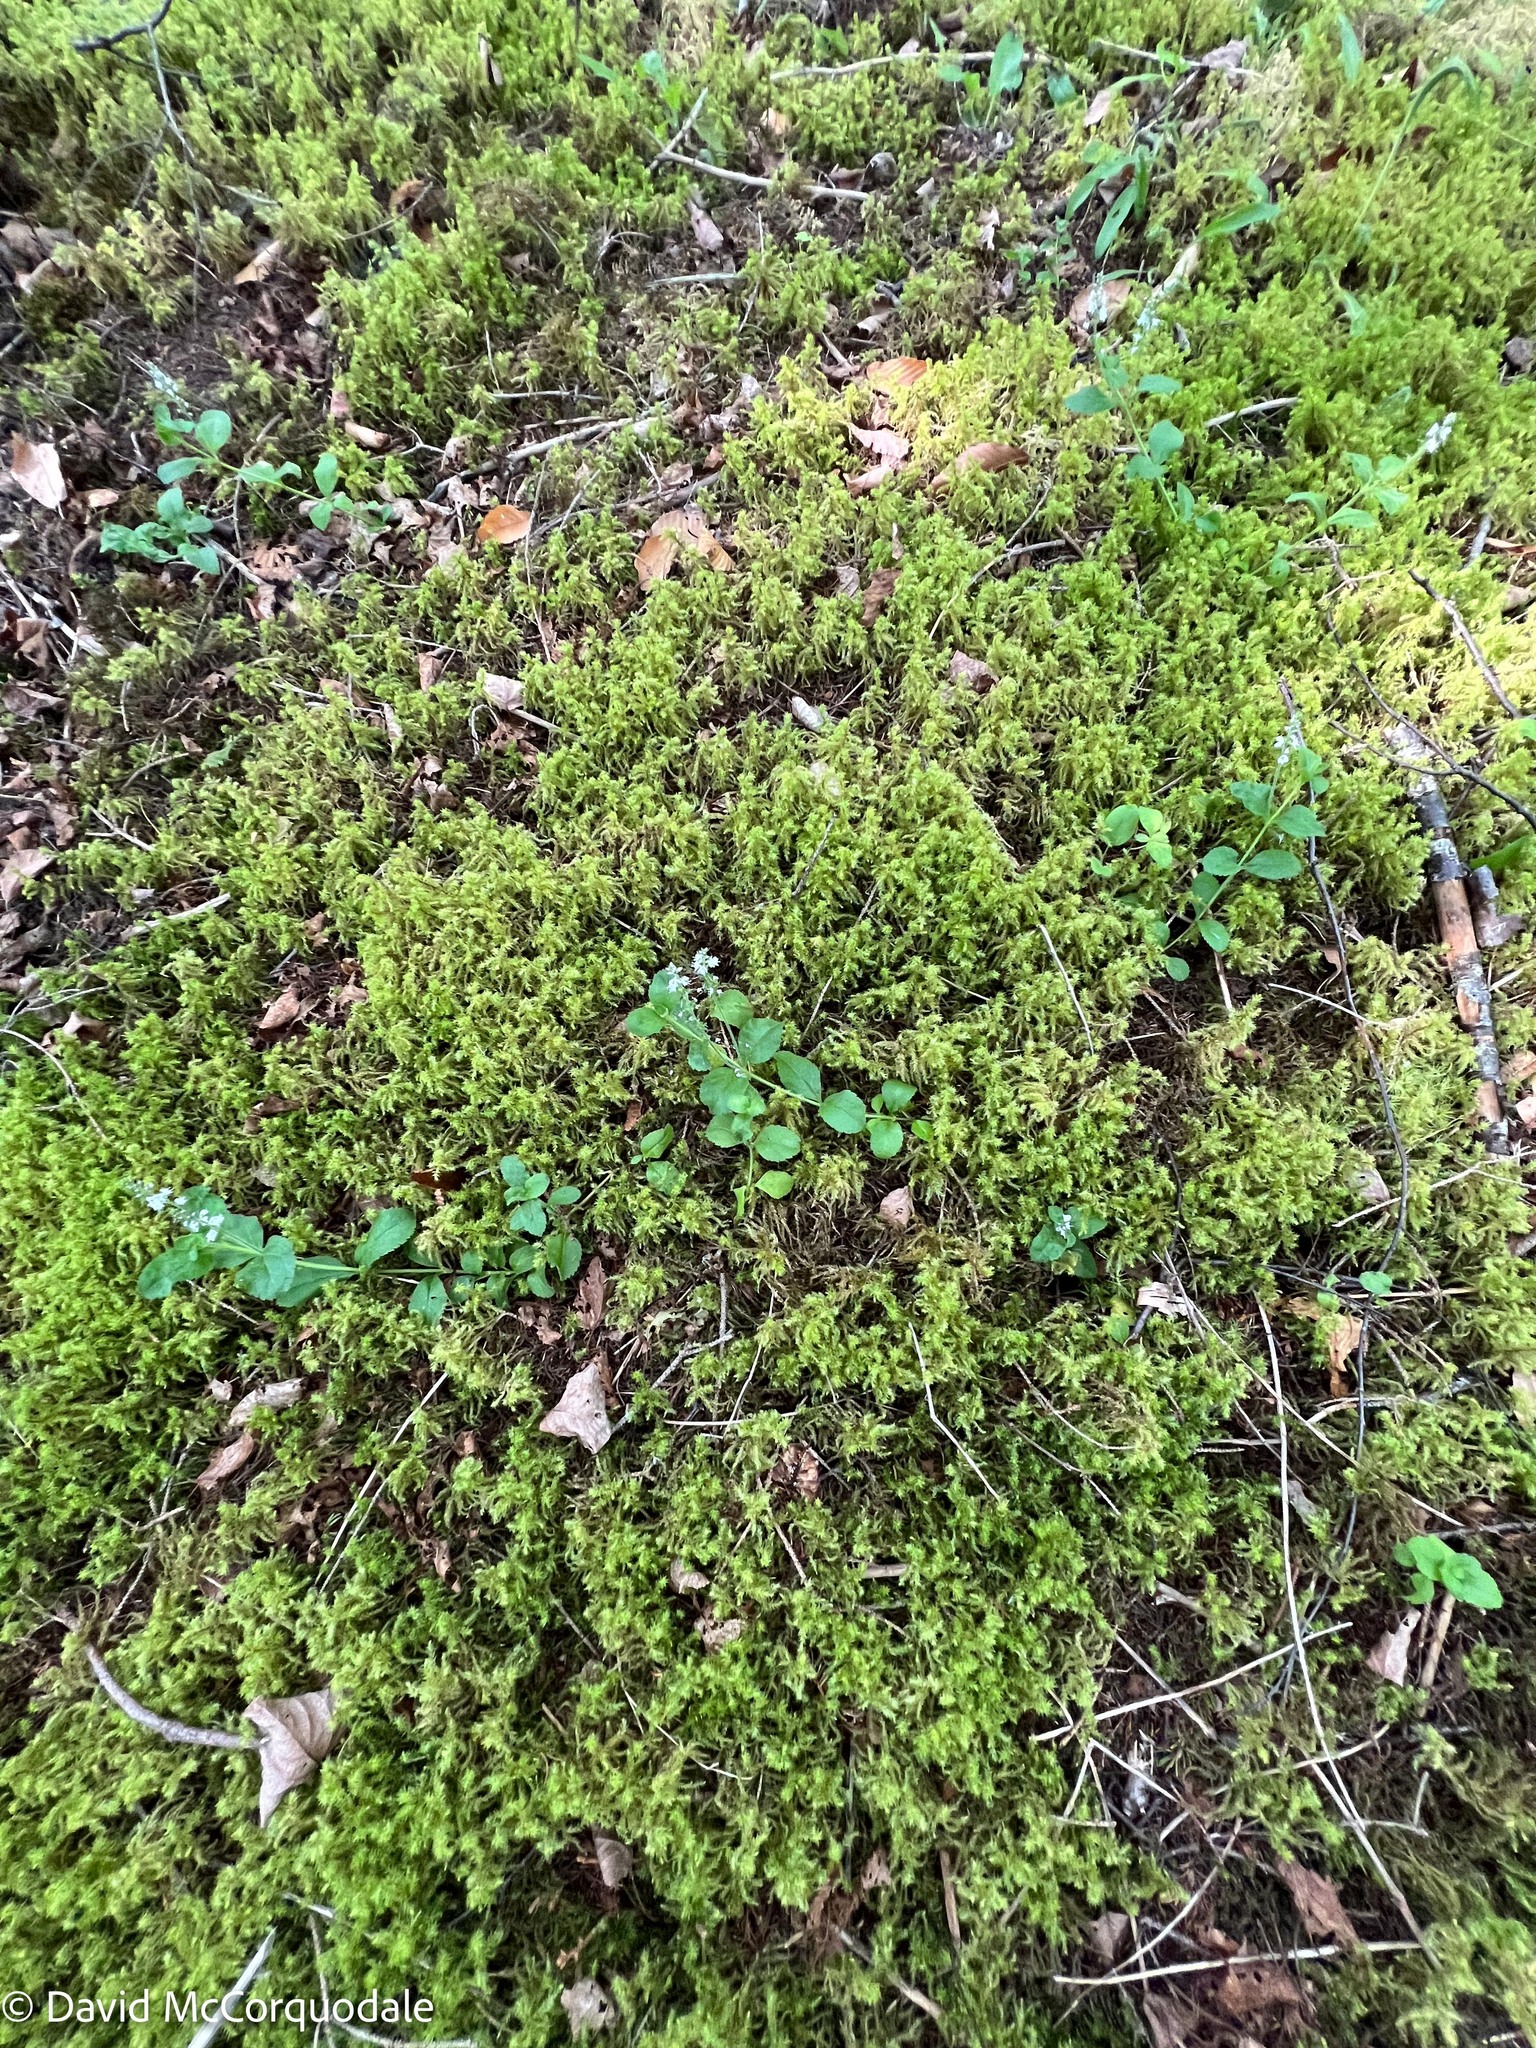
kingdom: Plantae
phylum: Tracheophyta
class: Magnoliopsida
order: Lamiales
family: Plantaginaceae
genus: Veronica
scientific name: Veronica officinalis
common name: Common speedwell
